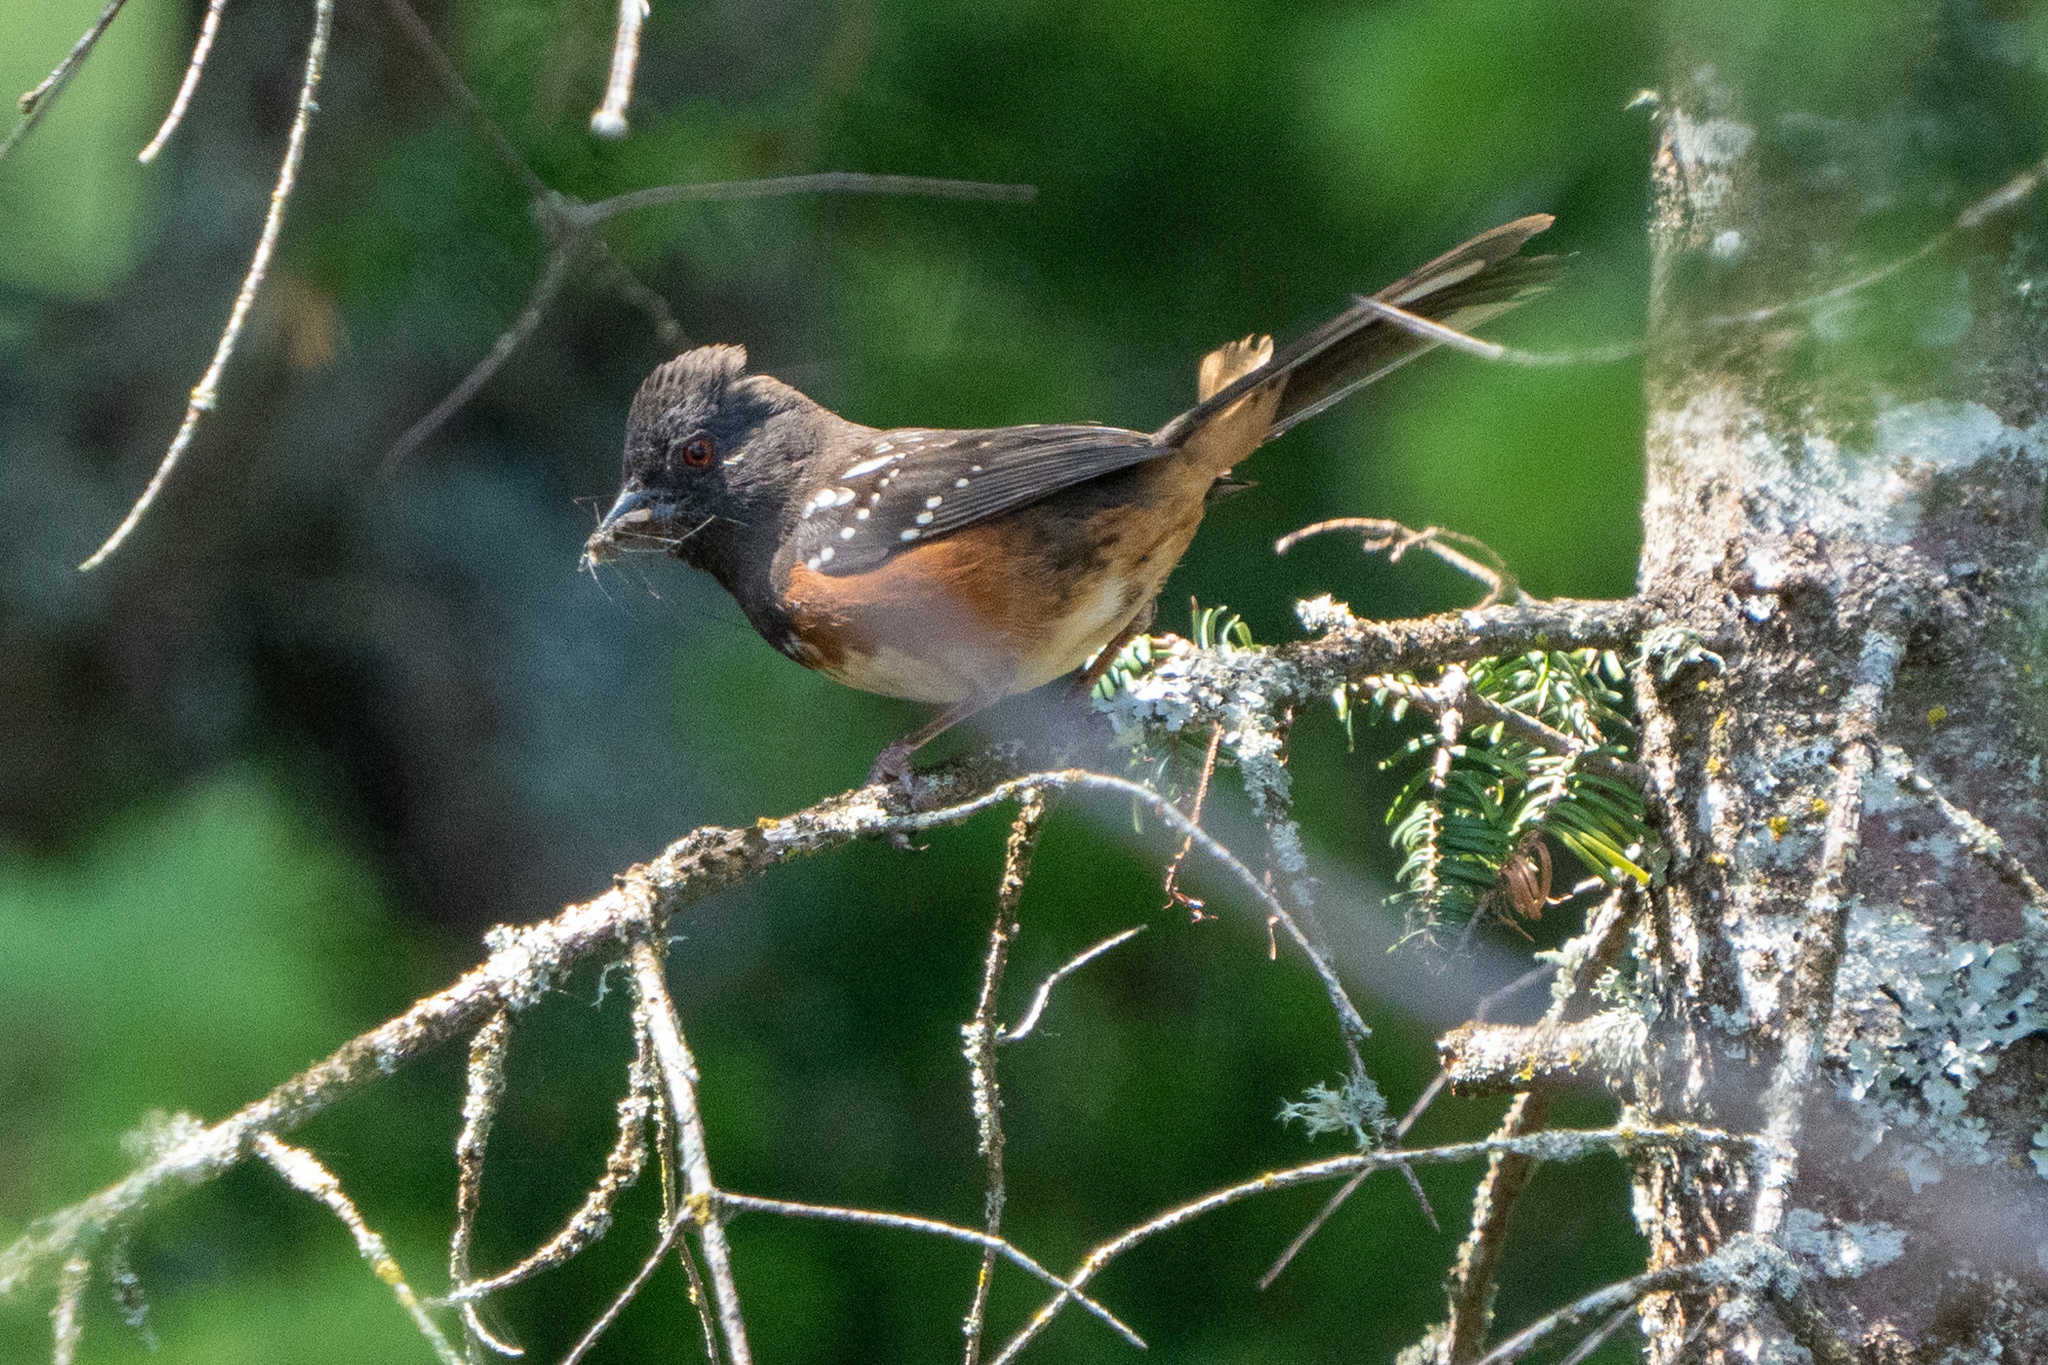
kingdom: Animalia
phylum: Chordata
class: Aves
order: Passeriformes
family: Passerellidae
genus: Pipilo
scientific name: Pipilo maculatus
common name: Spotted towhee
